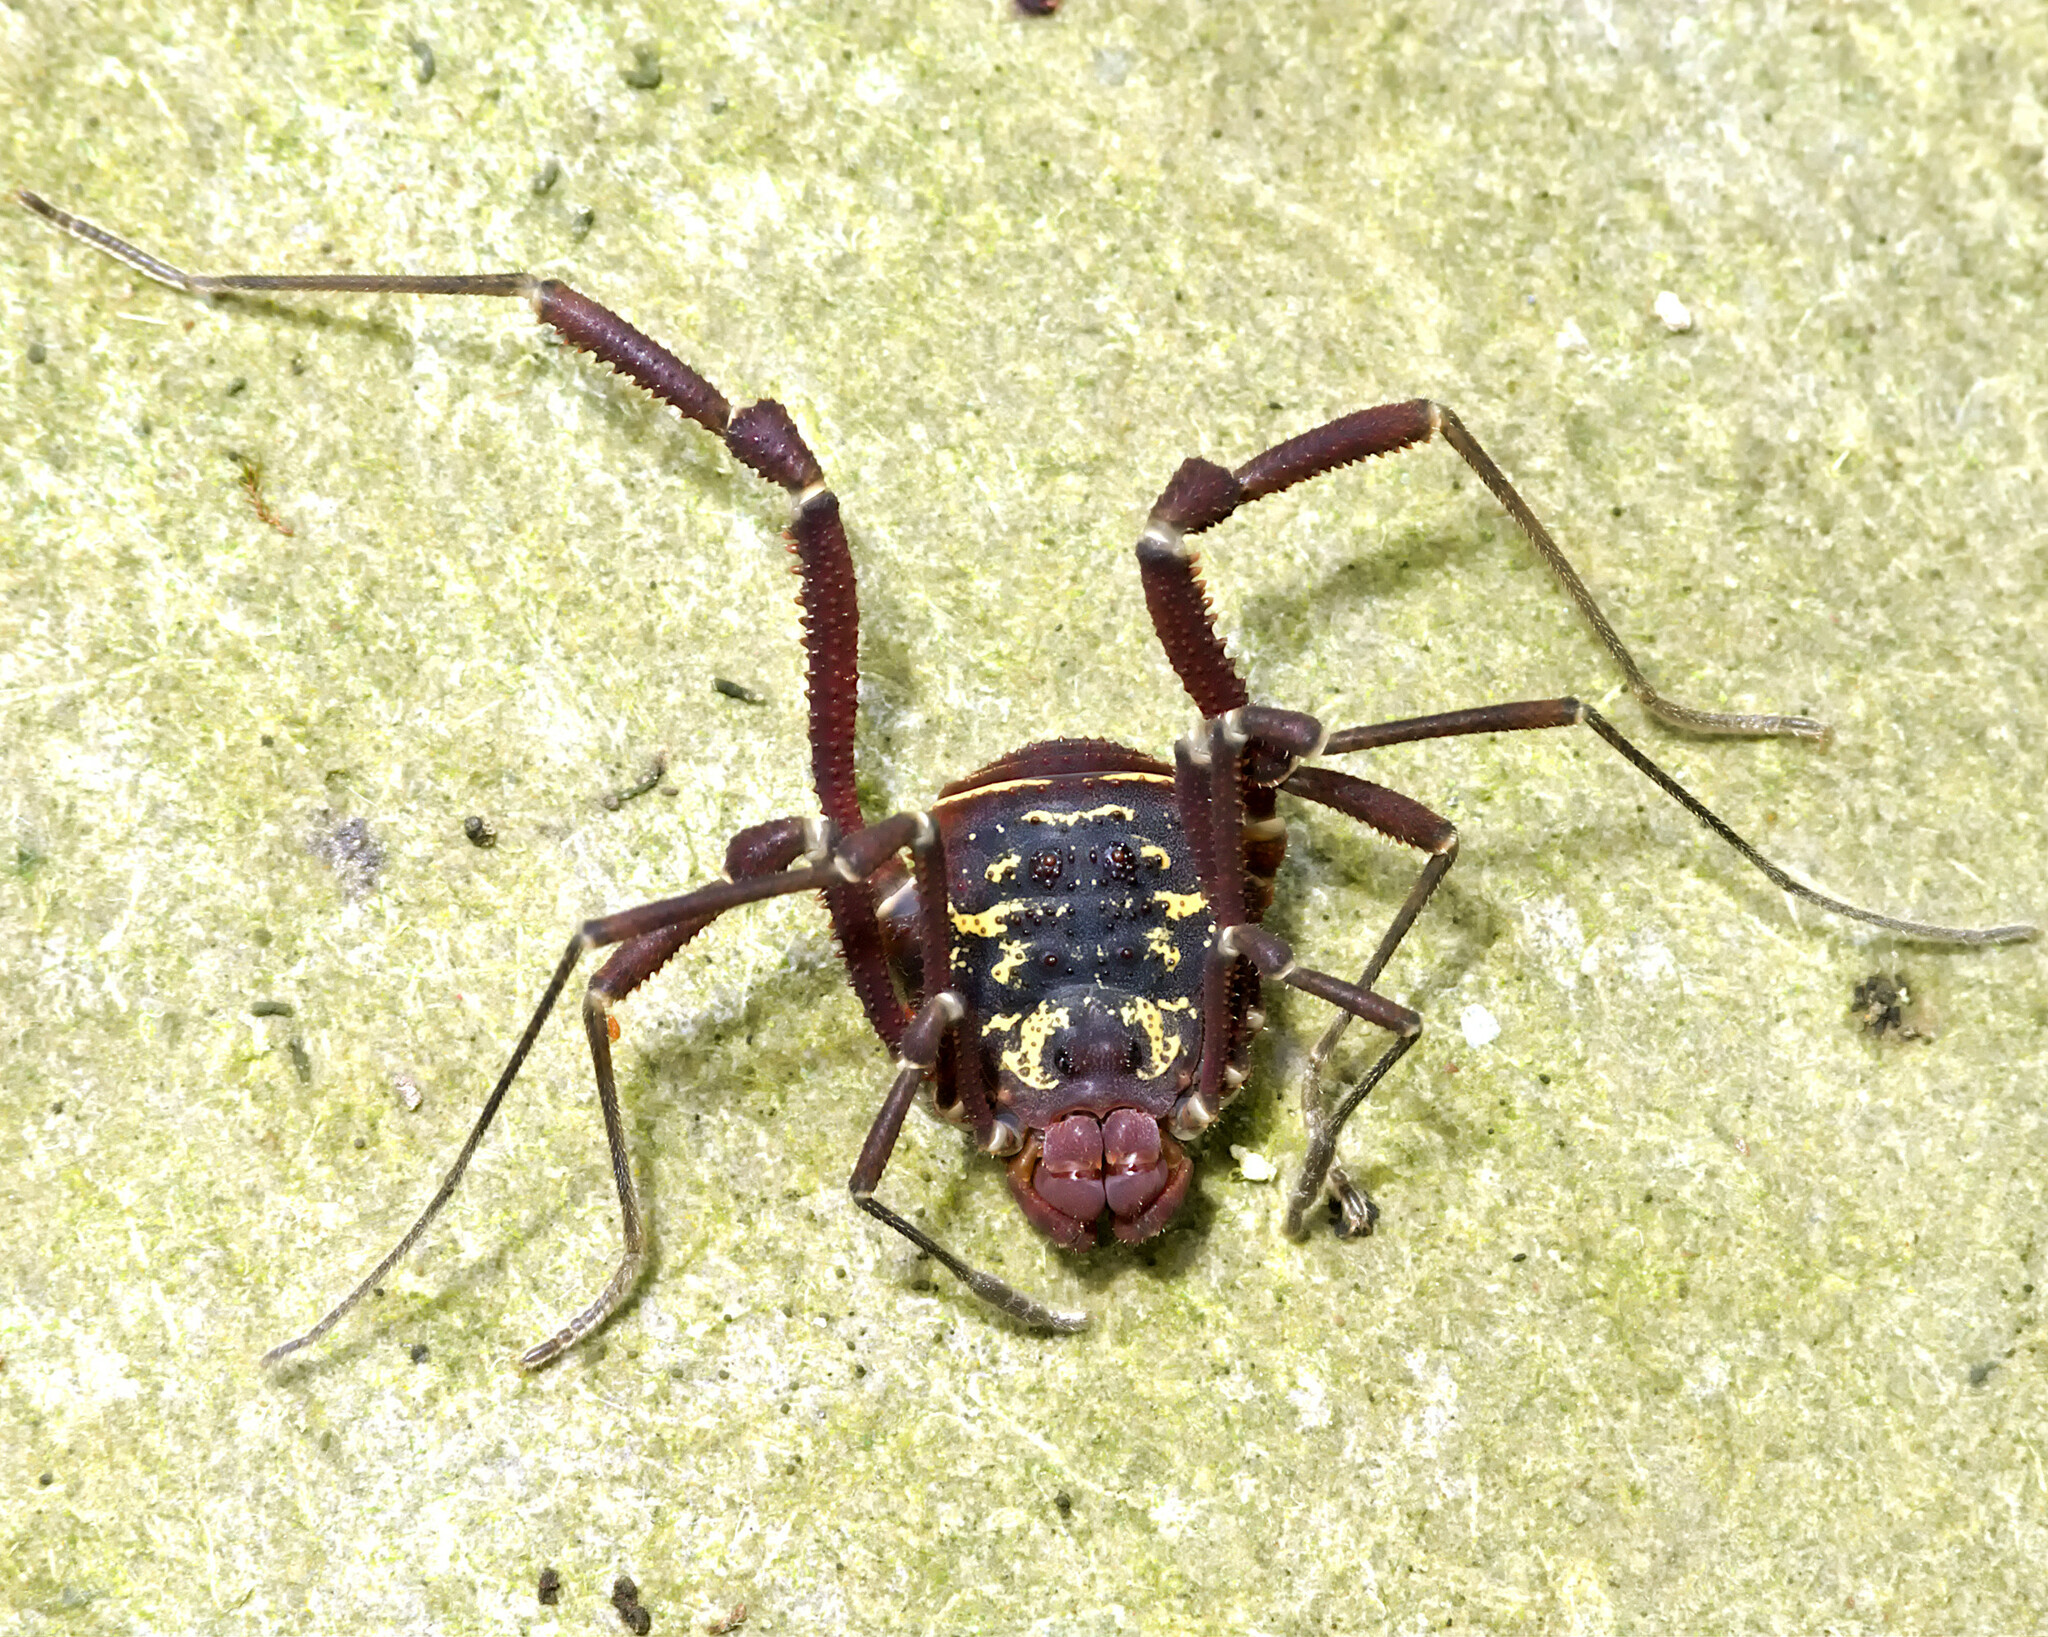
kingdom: Animalia
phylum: Arthropoda
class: Arachnida
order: Opiliones
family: Cosmetidae
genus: Rhaucus
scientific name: Rhaucus serripes
